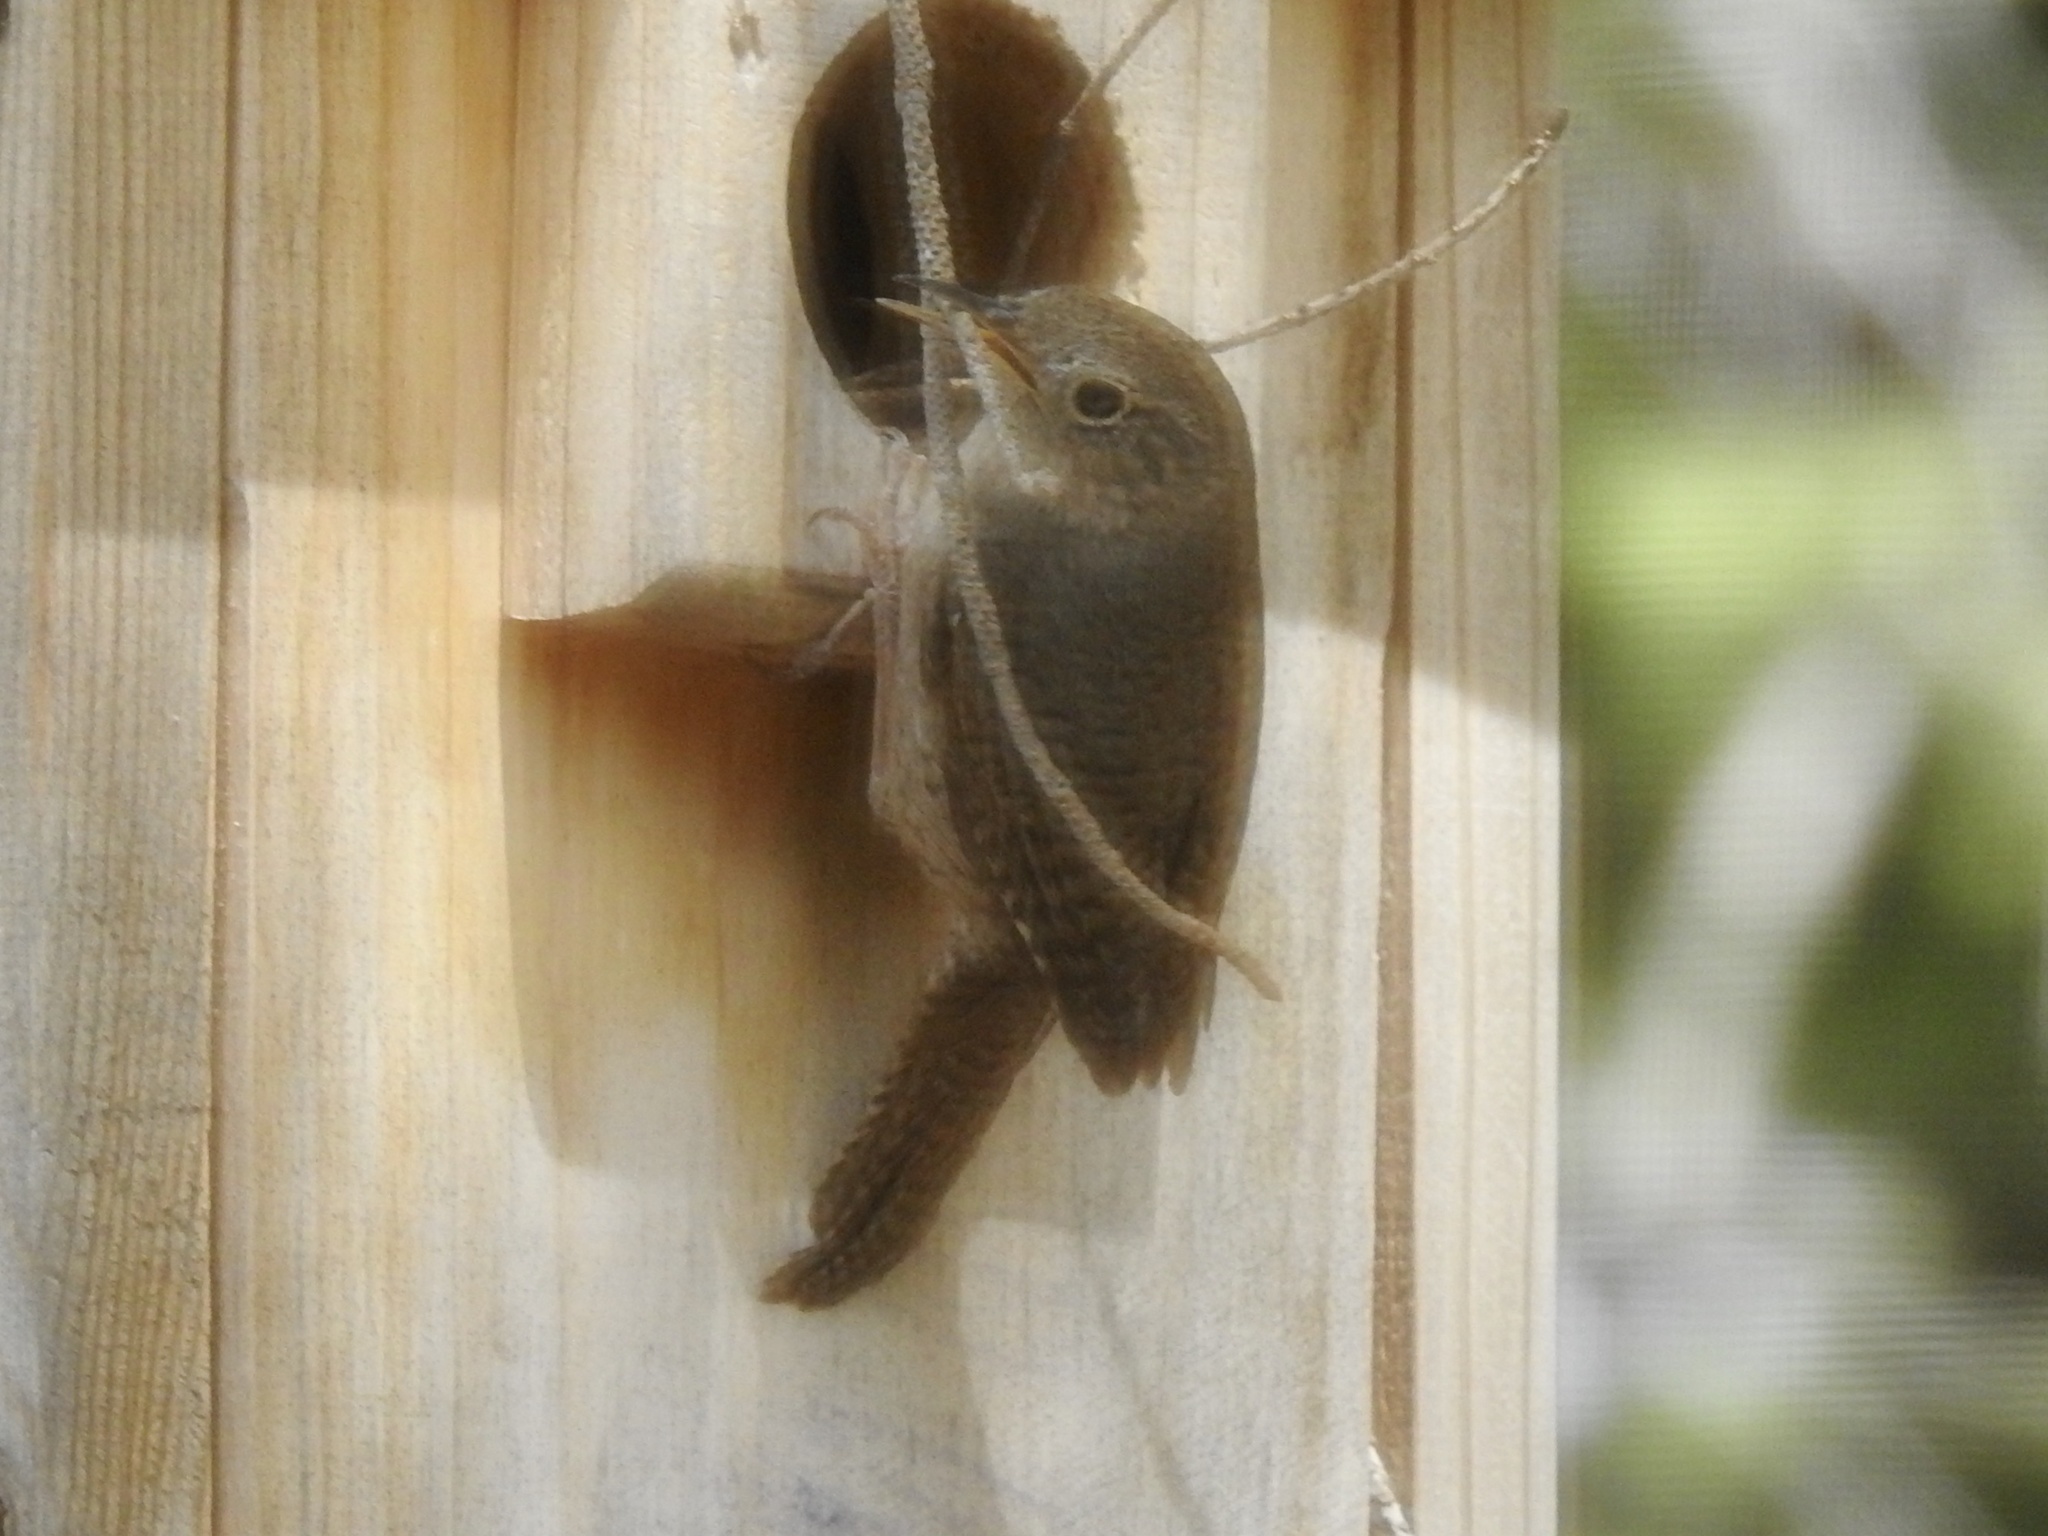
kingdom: Animalia
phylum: Chordata
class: Aves
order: Passeriformes
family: Troglodytidae
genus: Troglodytes
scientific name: Troglodytes aedon
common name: House wren
